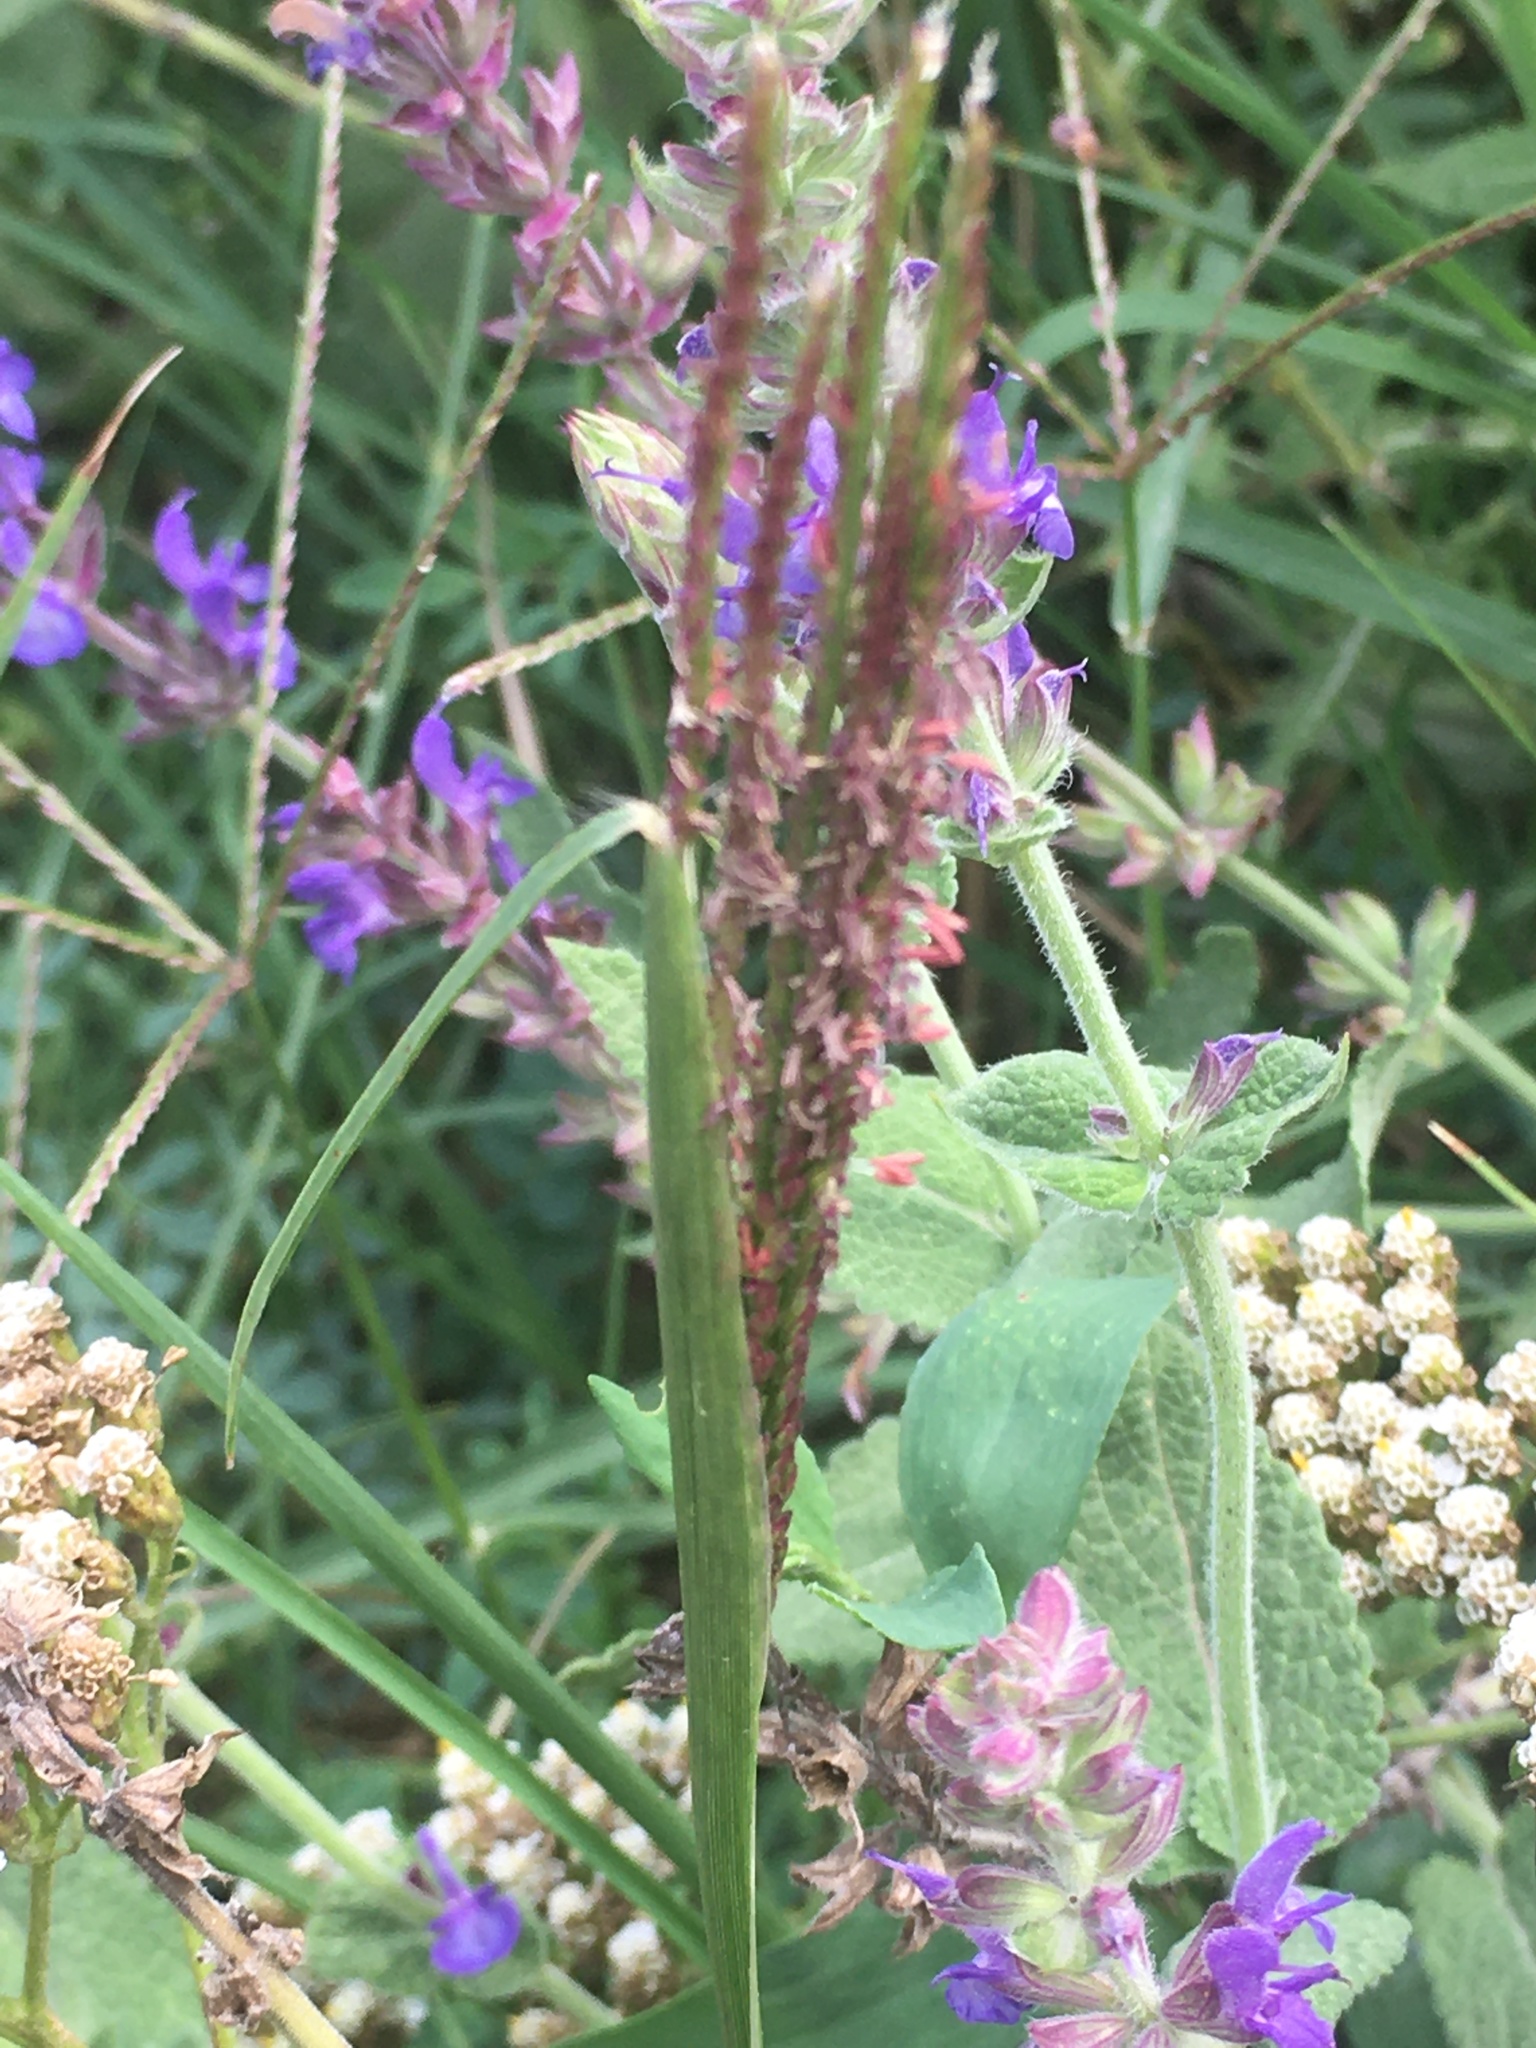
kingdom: Plantae
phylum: Tracheophyta
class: Liliopsida
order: Poales
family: Poaceae
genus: Cynodon
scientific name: Cynodon dactylon
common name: Bermuda grass
